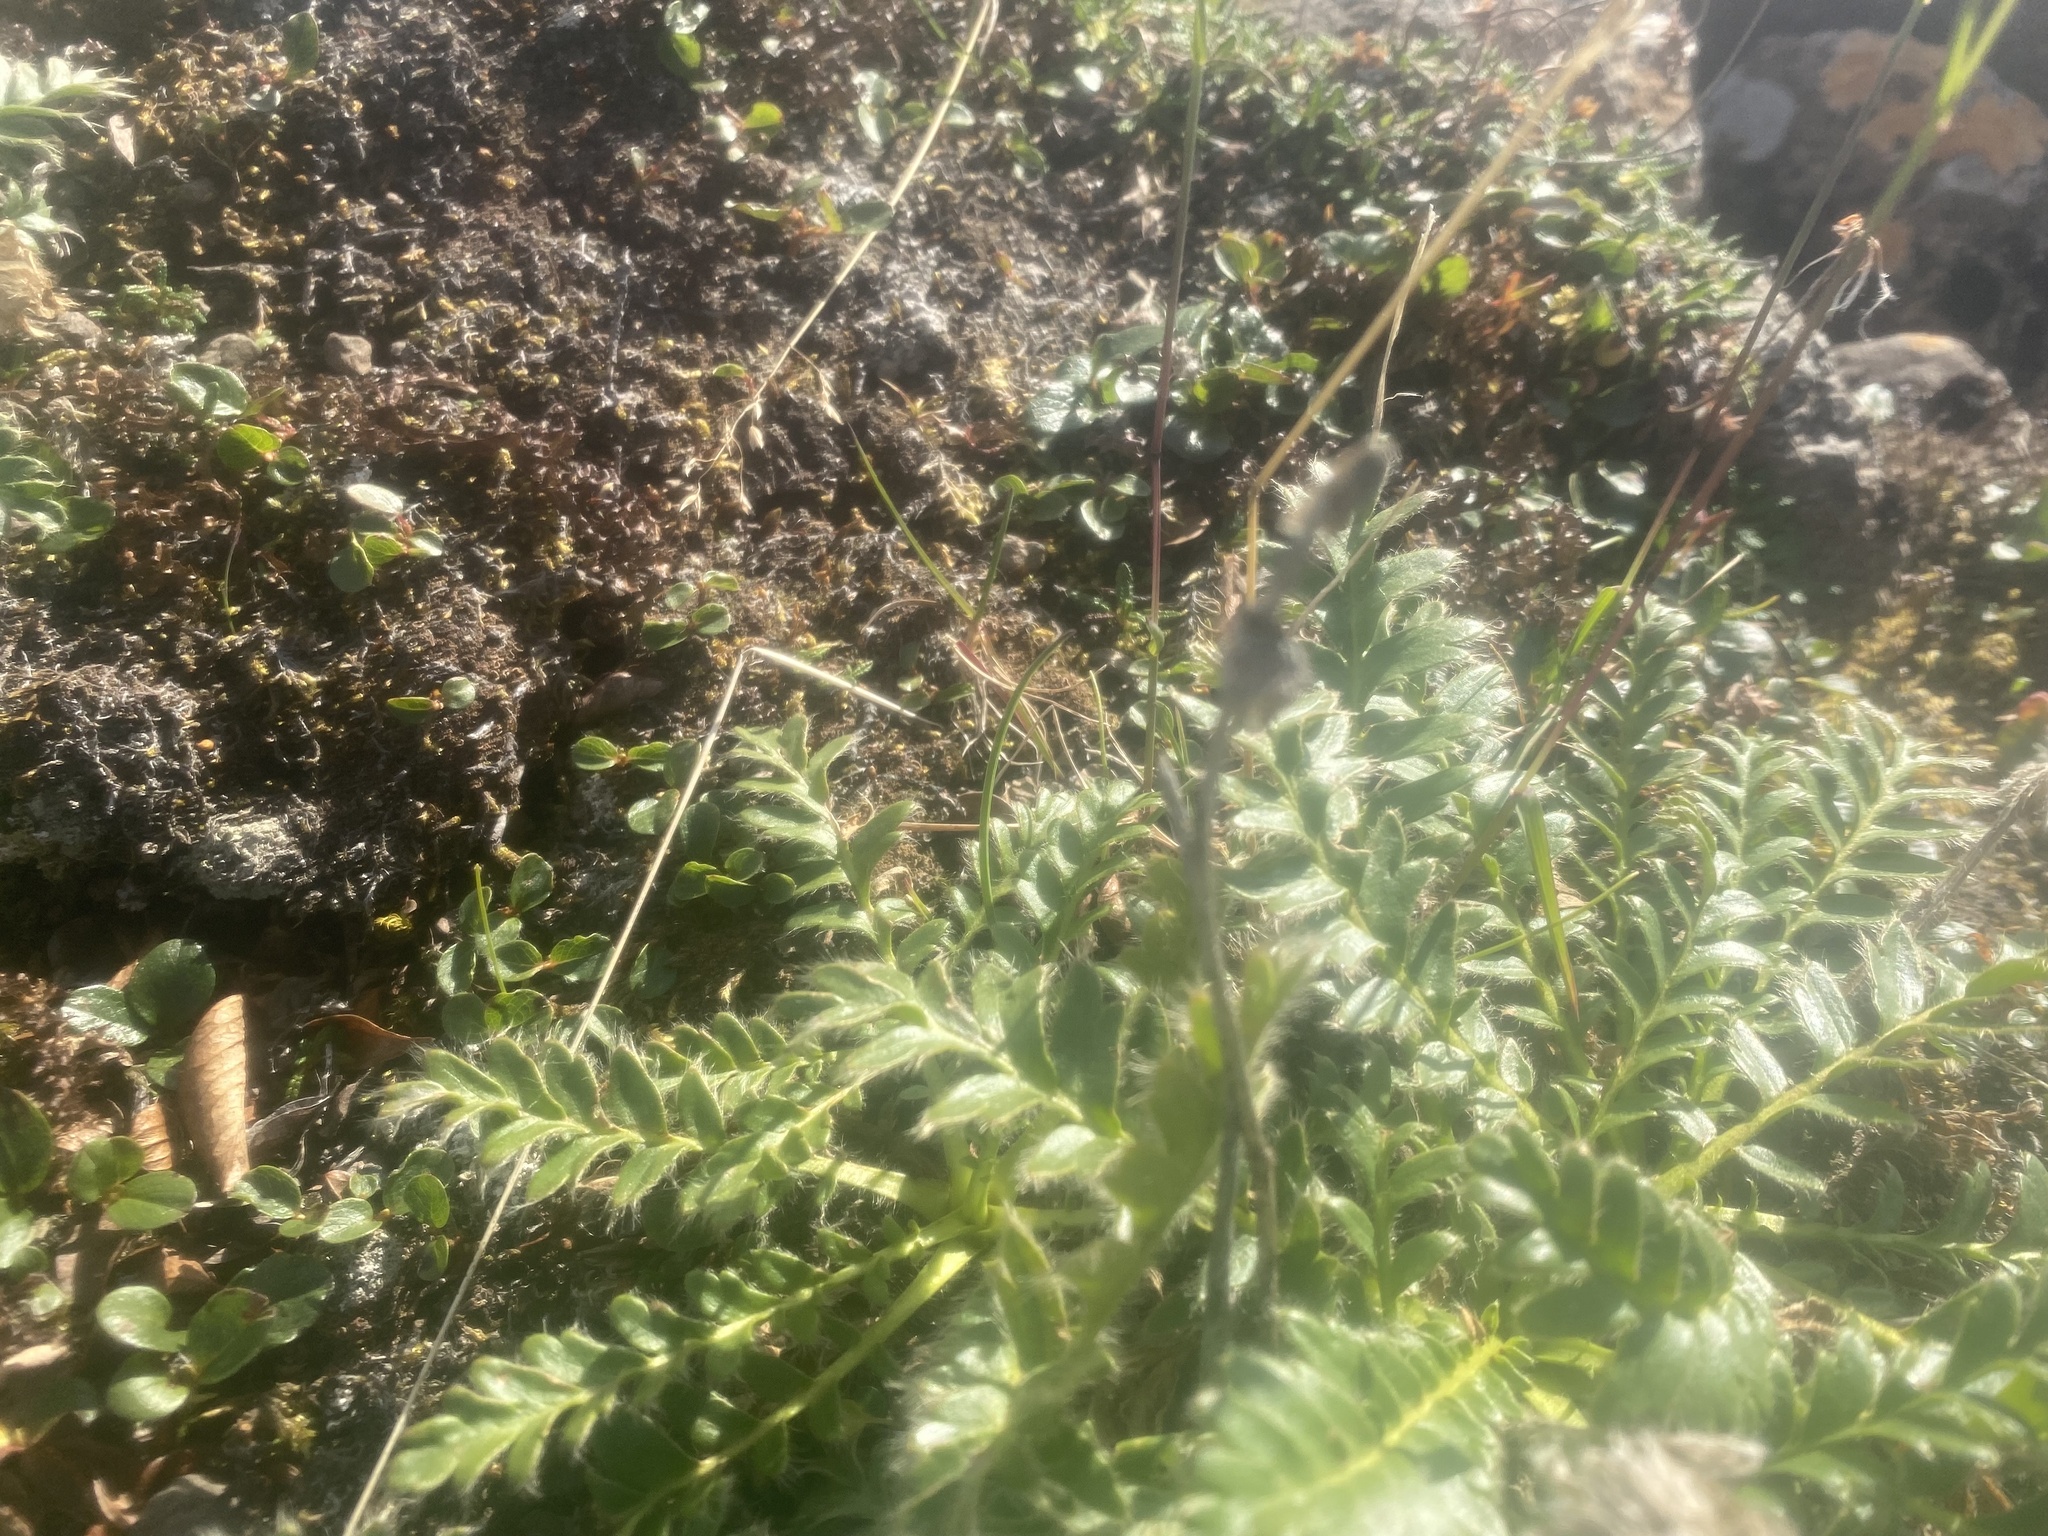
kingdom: Plantae
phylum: Tracheophyta
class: Magnoliopsida
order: Rosales
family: Rosaceae
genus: Geum
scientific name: Geum glaciale
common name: Glacier avens
